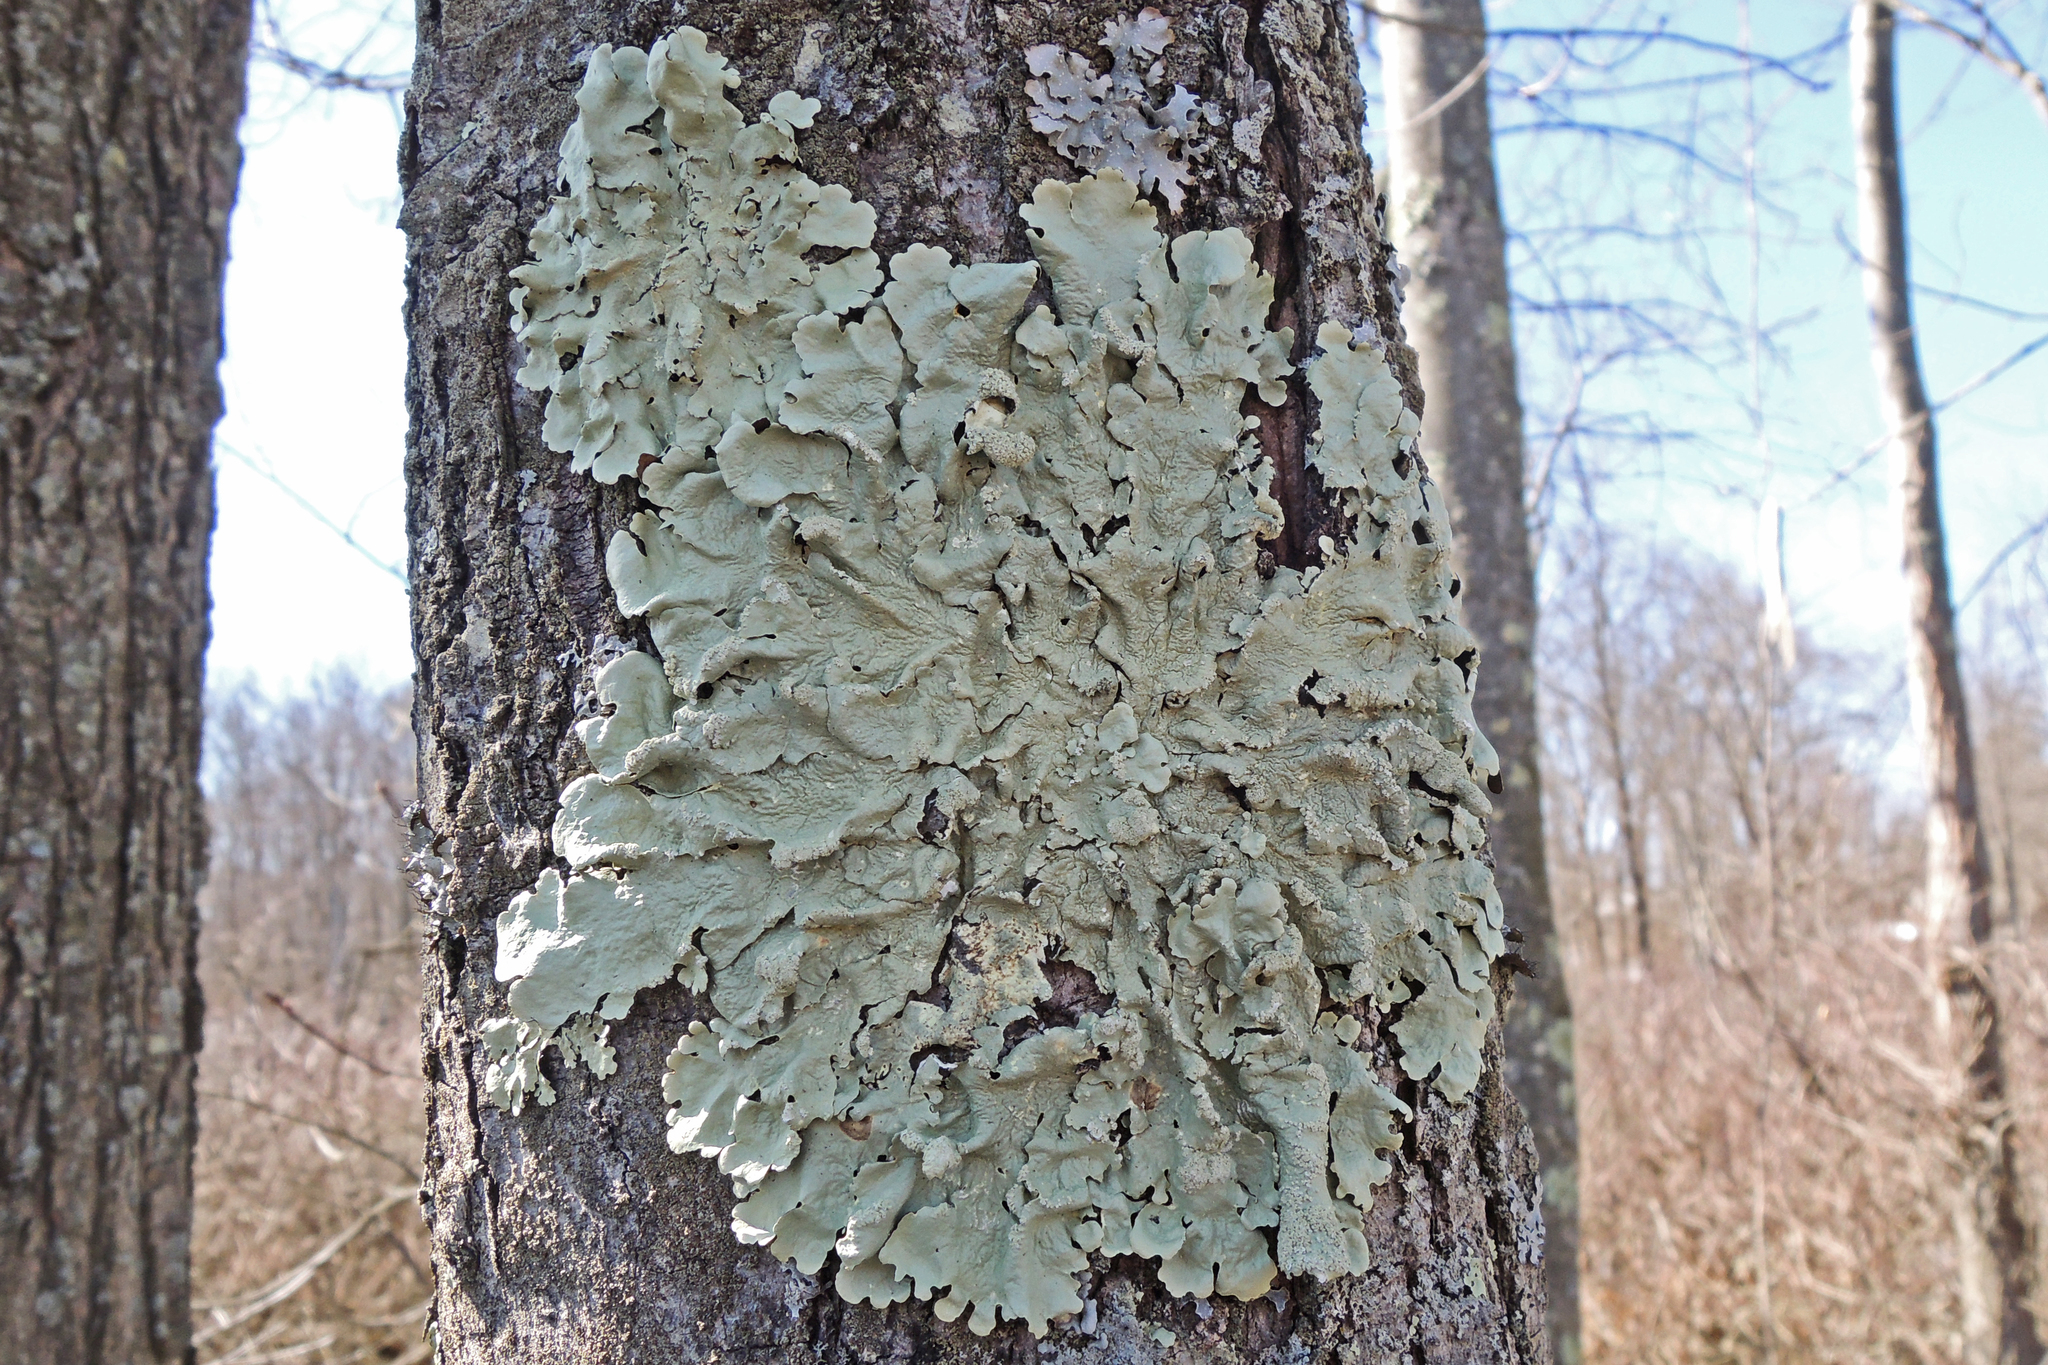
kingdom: Fungi
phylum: Ascomycota
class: Lecanoromycetes
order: Lecanorales
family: Parmeliaceae
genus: Flavoparmelia
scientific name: Flavoparmelia caperata
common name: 40-mile per hour lichen
